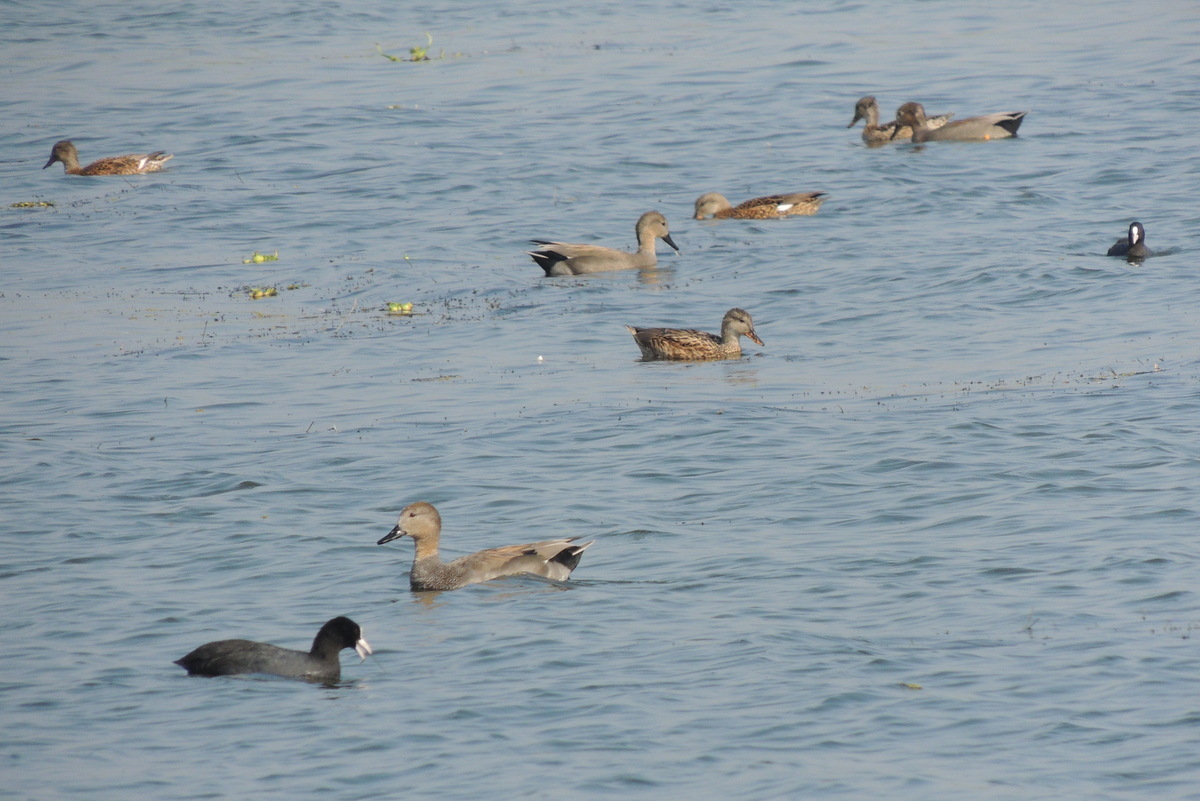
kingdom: Animalia
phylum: Chordata
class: Aves
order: Anseriformes
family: Anatidae
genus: Mareca
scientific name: Mareca strepera
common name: Gadwall
